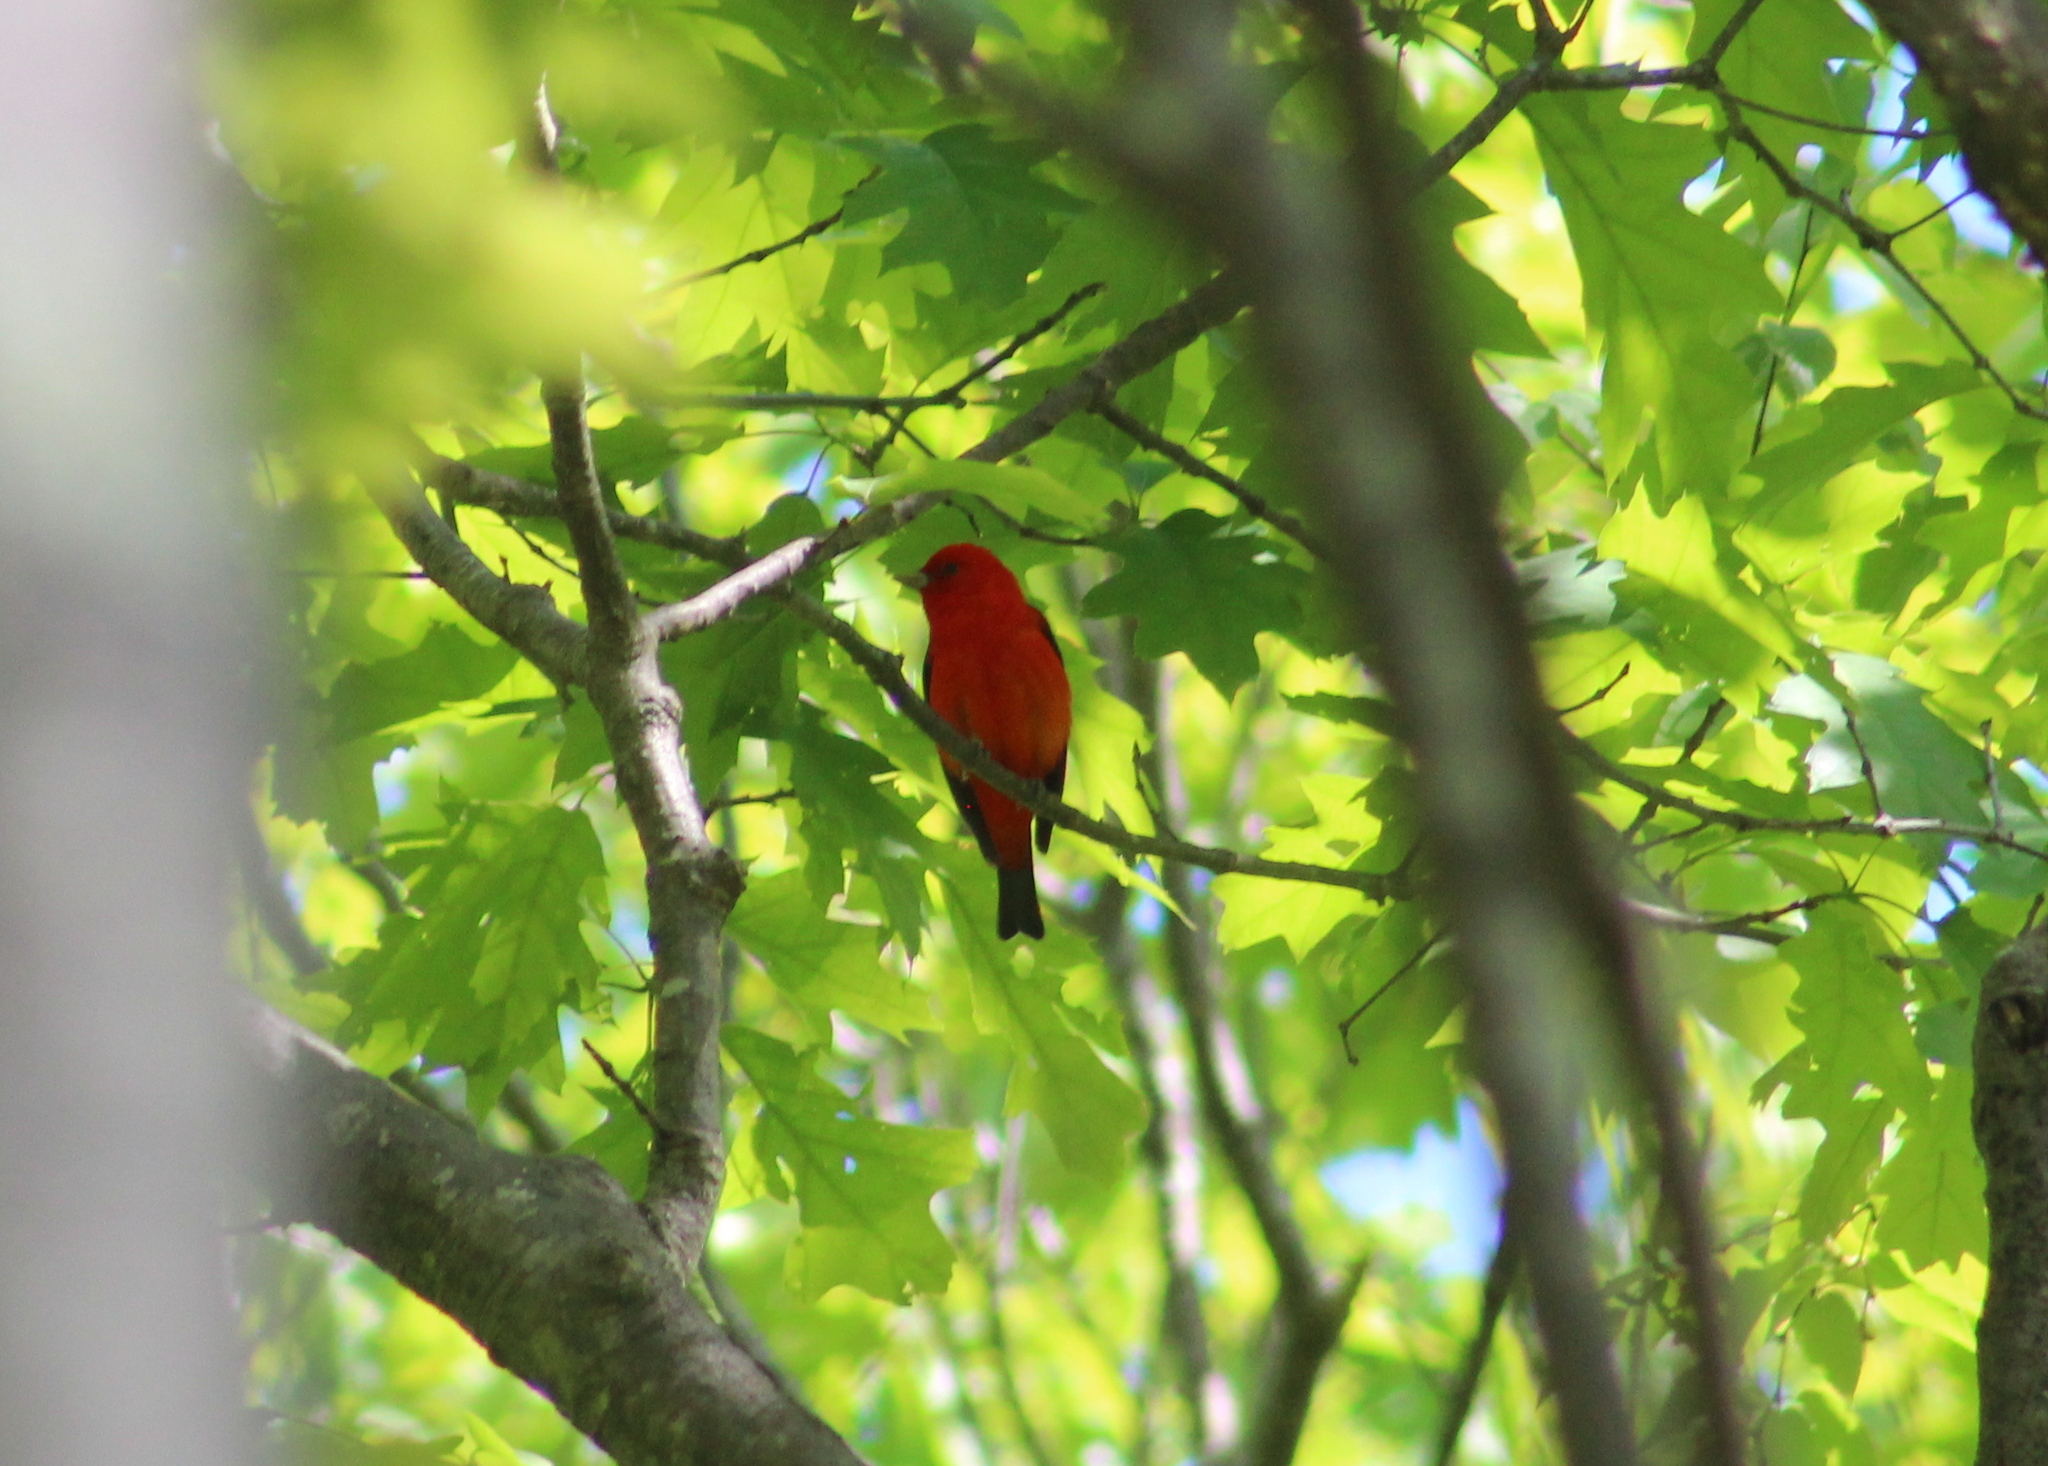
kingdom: Animalia
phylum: Chordata
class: Aves
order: Passeriformes
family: Cardinalidae
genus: Piranga
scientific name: Piranga olivacea
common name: Scarlet tanager
